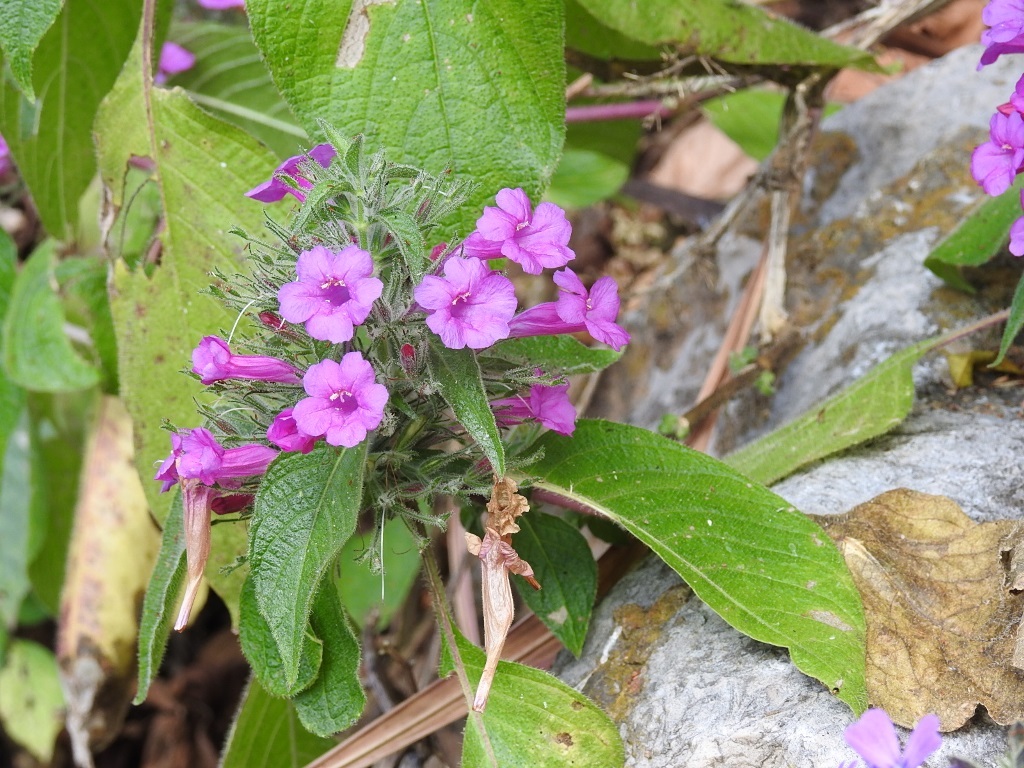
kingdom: Plantae
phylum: Tracheophyta
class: Magnoliopsida
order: Lamiales
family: Acanthaceae
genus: Ruellia
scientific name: Ruellia inundata
